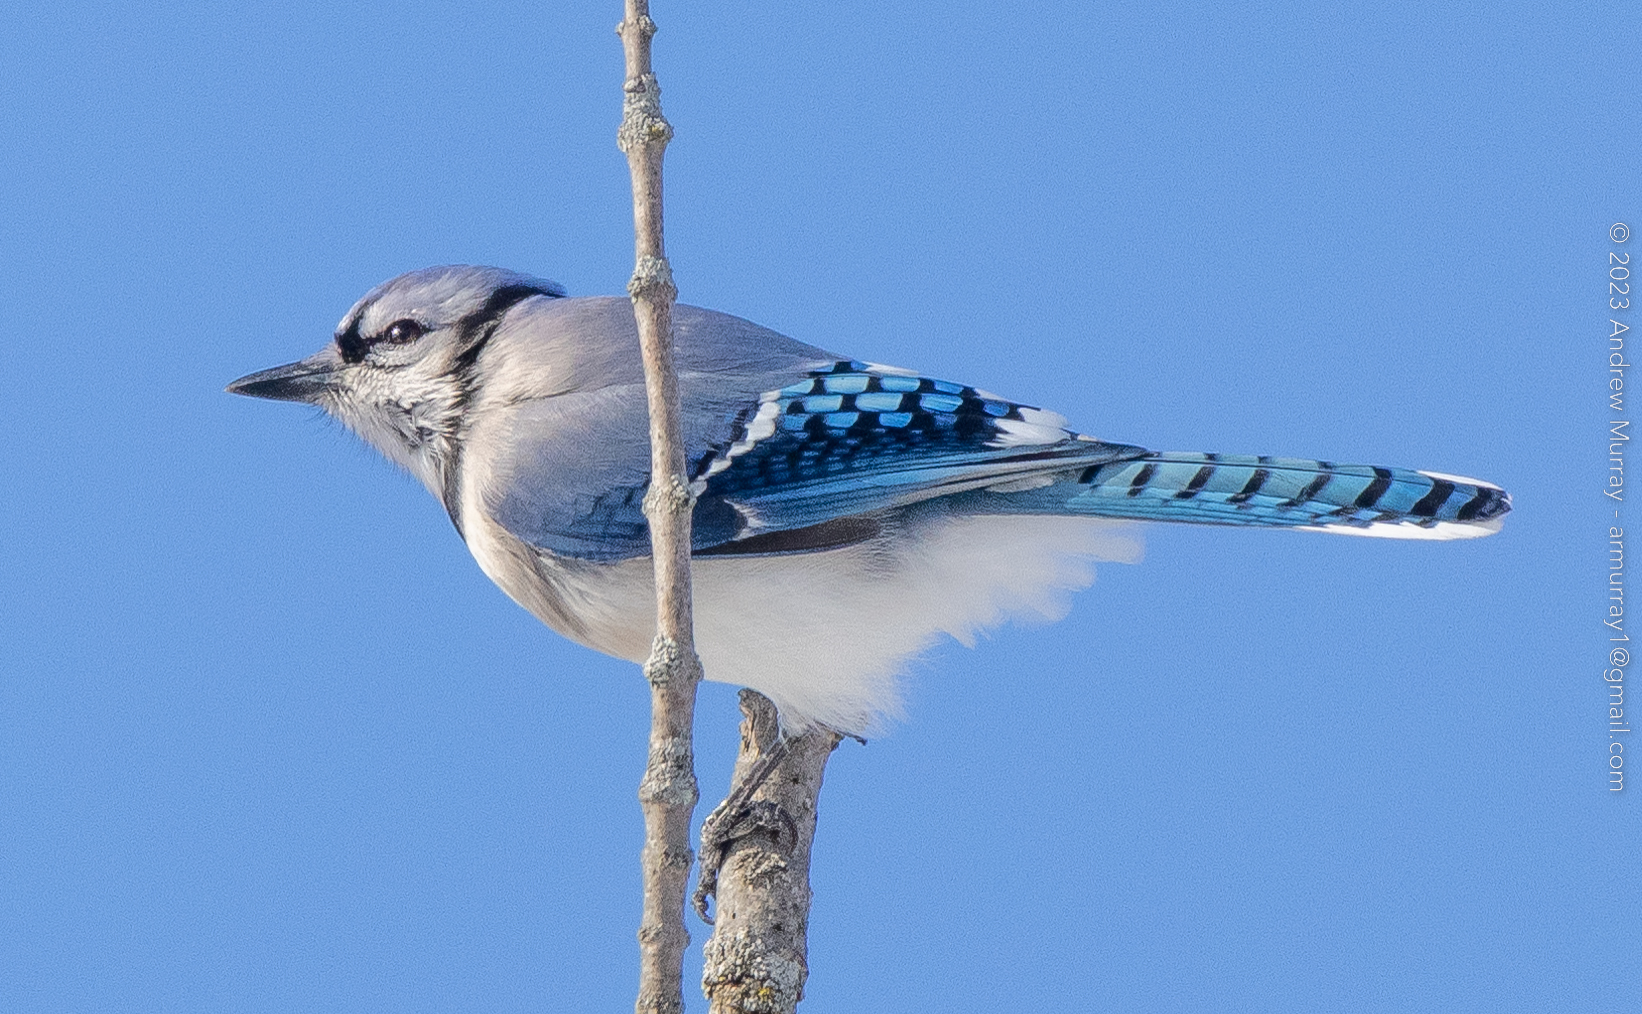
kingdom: Animalia
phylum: Chordata
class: Aves
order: Passeriformes
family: Corvidae
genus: Cyanocitta
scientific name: Cyanocitta cristata
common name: Blue jay
